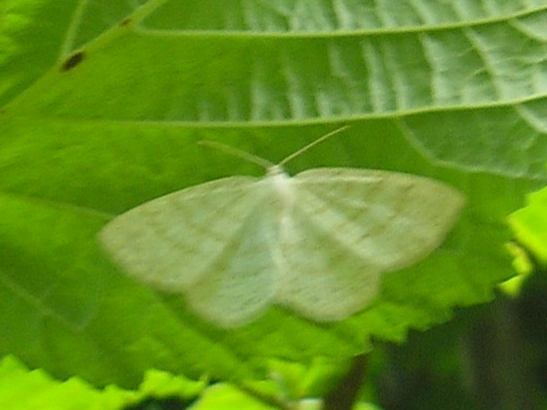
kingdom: Animalia
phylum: Arthropoda
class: Insecta
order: Lepidoptera
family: Geometridae
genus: Cabera
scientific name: Cabera exanthemata
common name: Common wave
